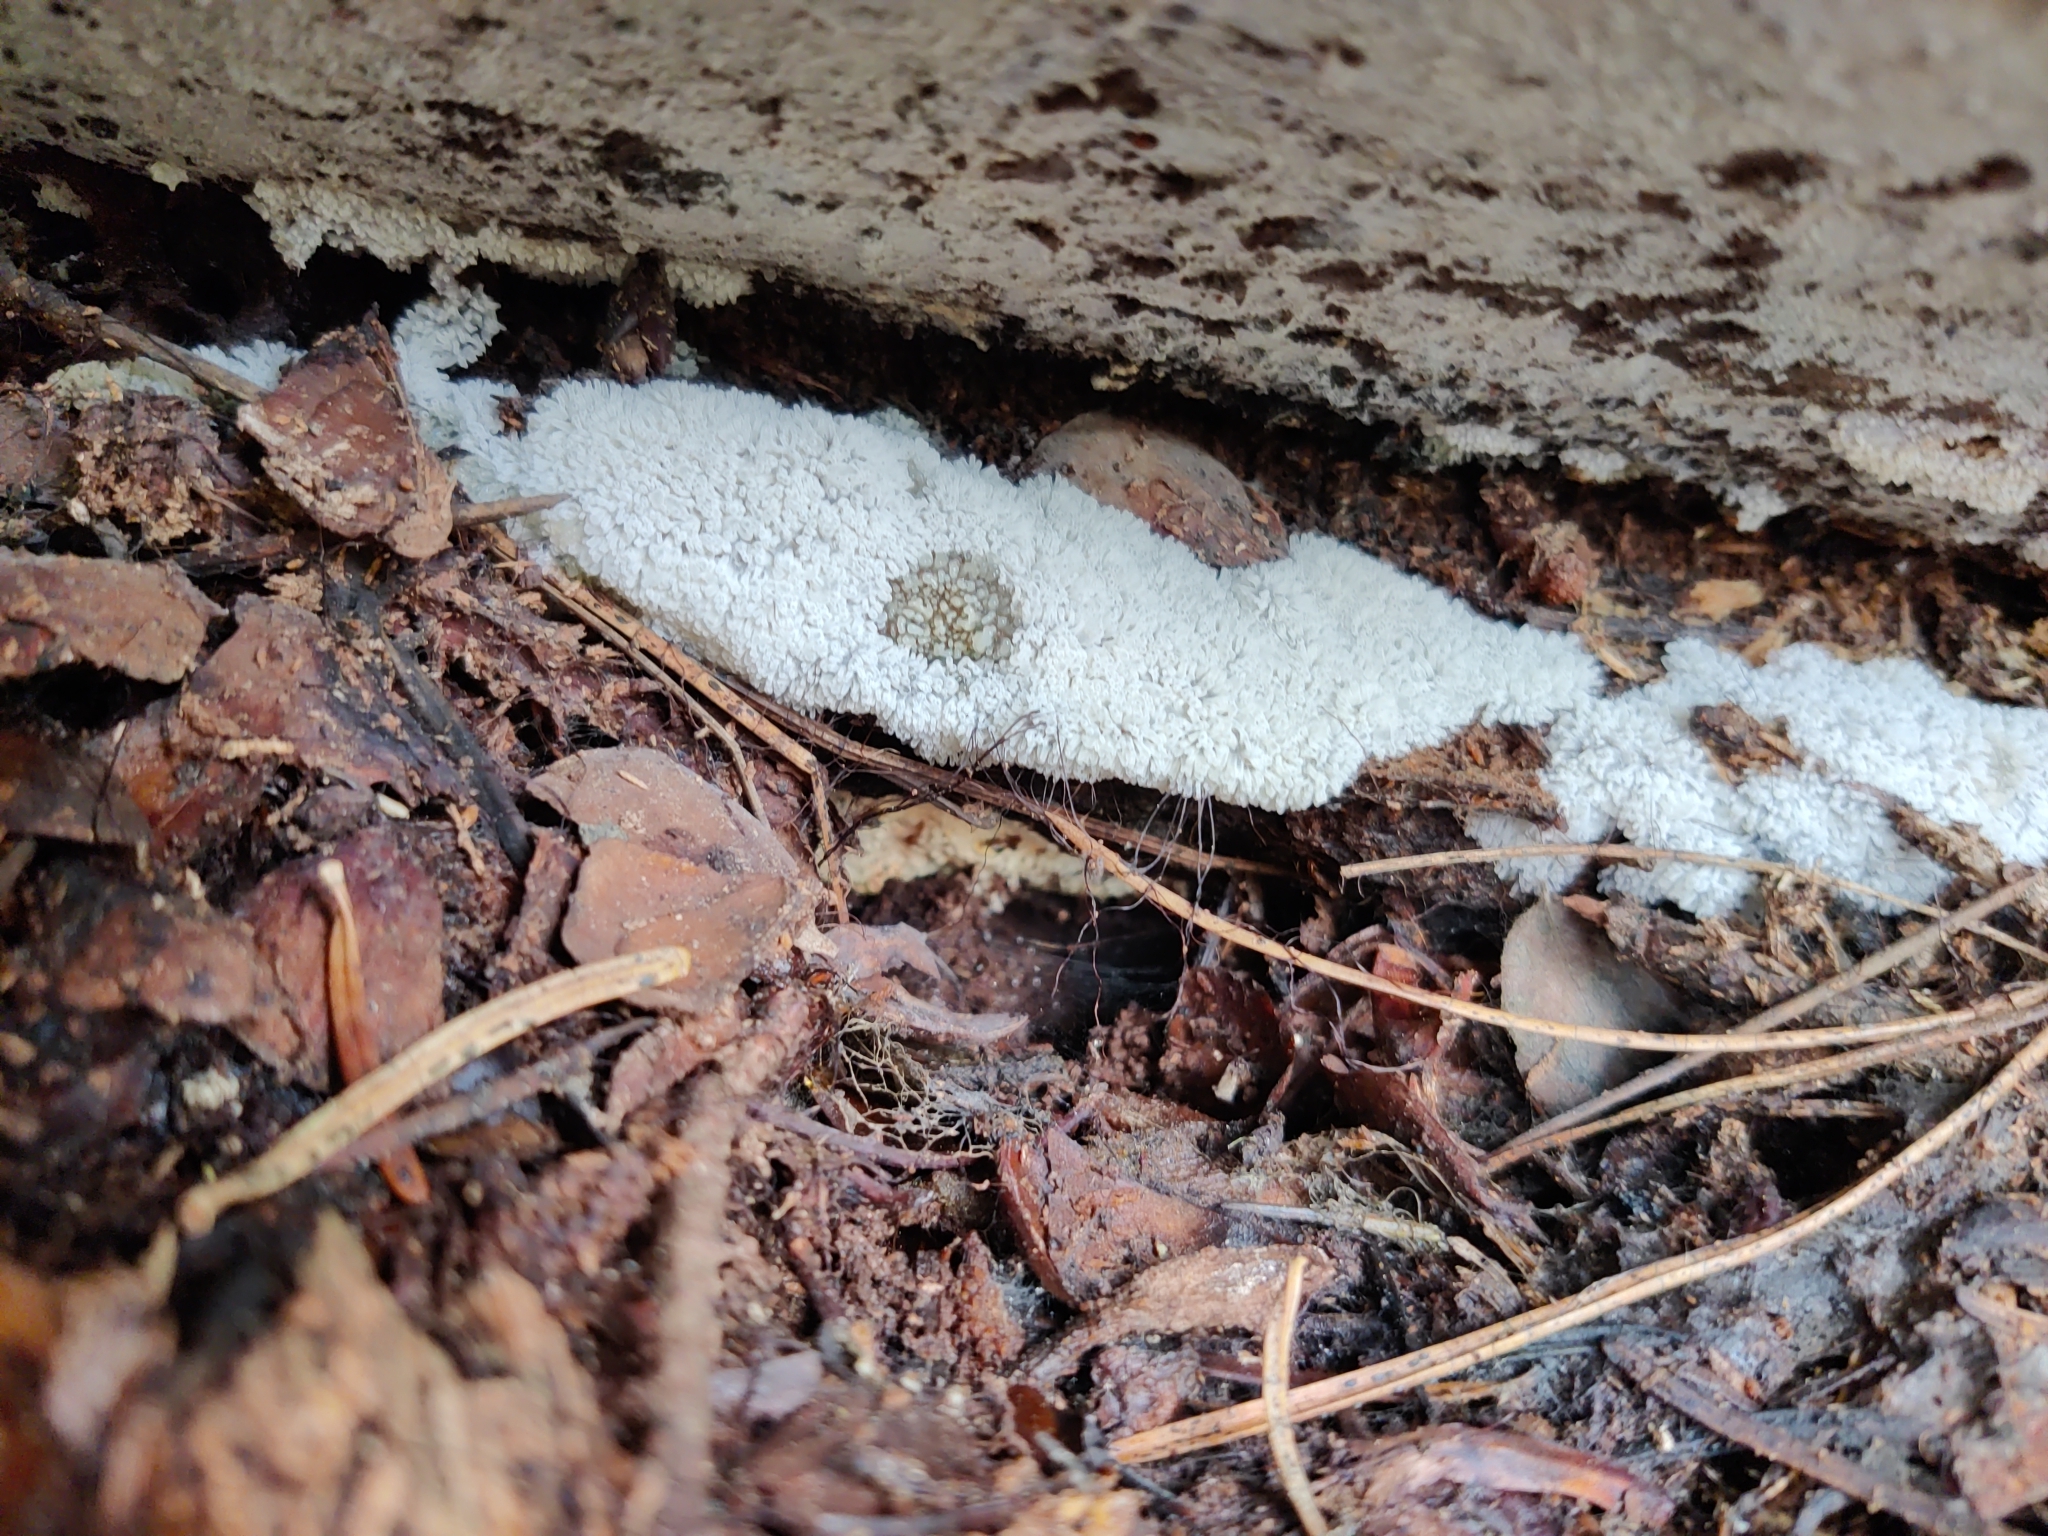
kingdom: Protozoa
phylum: Mycetozoa
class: Protosteliomycetes
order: Ceratiomyxales
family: Ceratiomyxaceae
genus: Ceratiomyxa
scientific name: Ceratiomyxa fruticulosa
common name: Honeycomb coral slime mold
